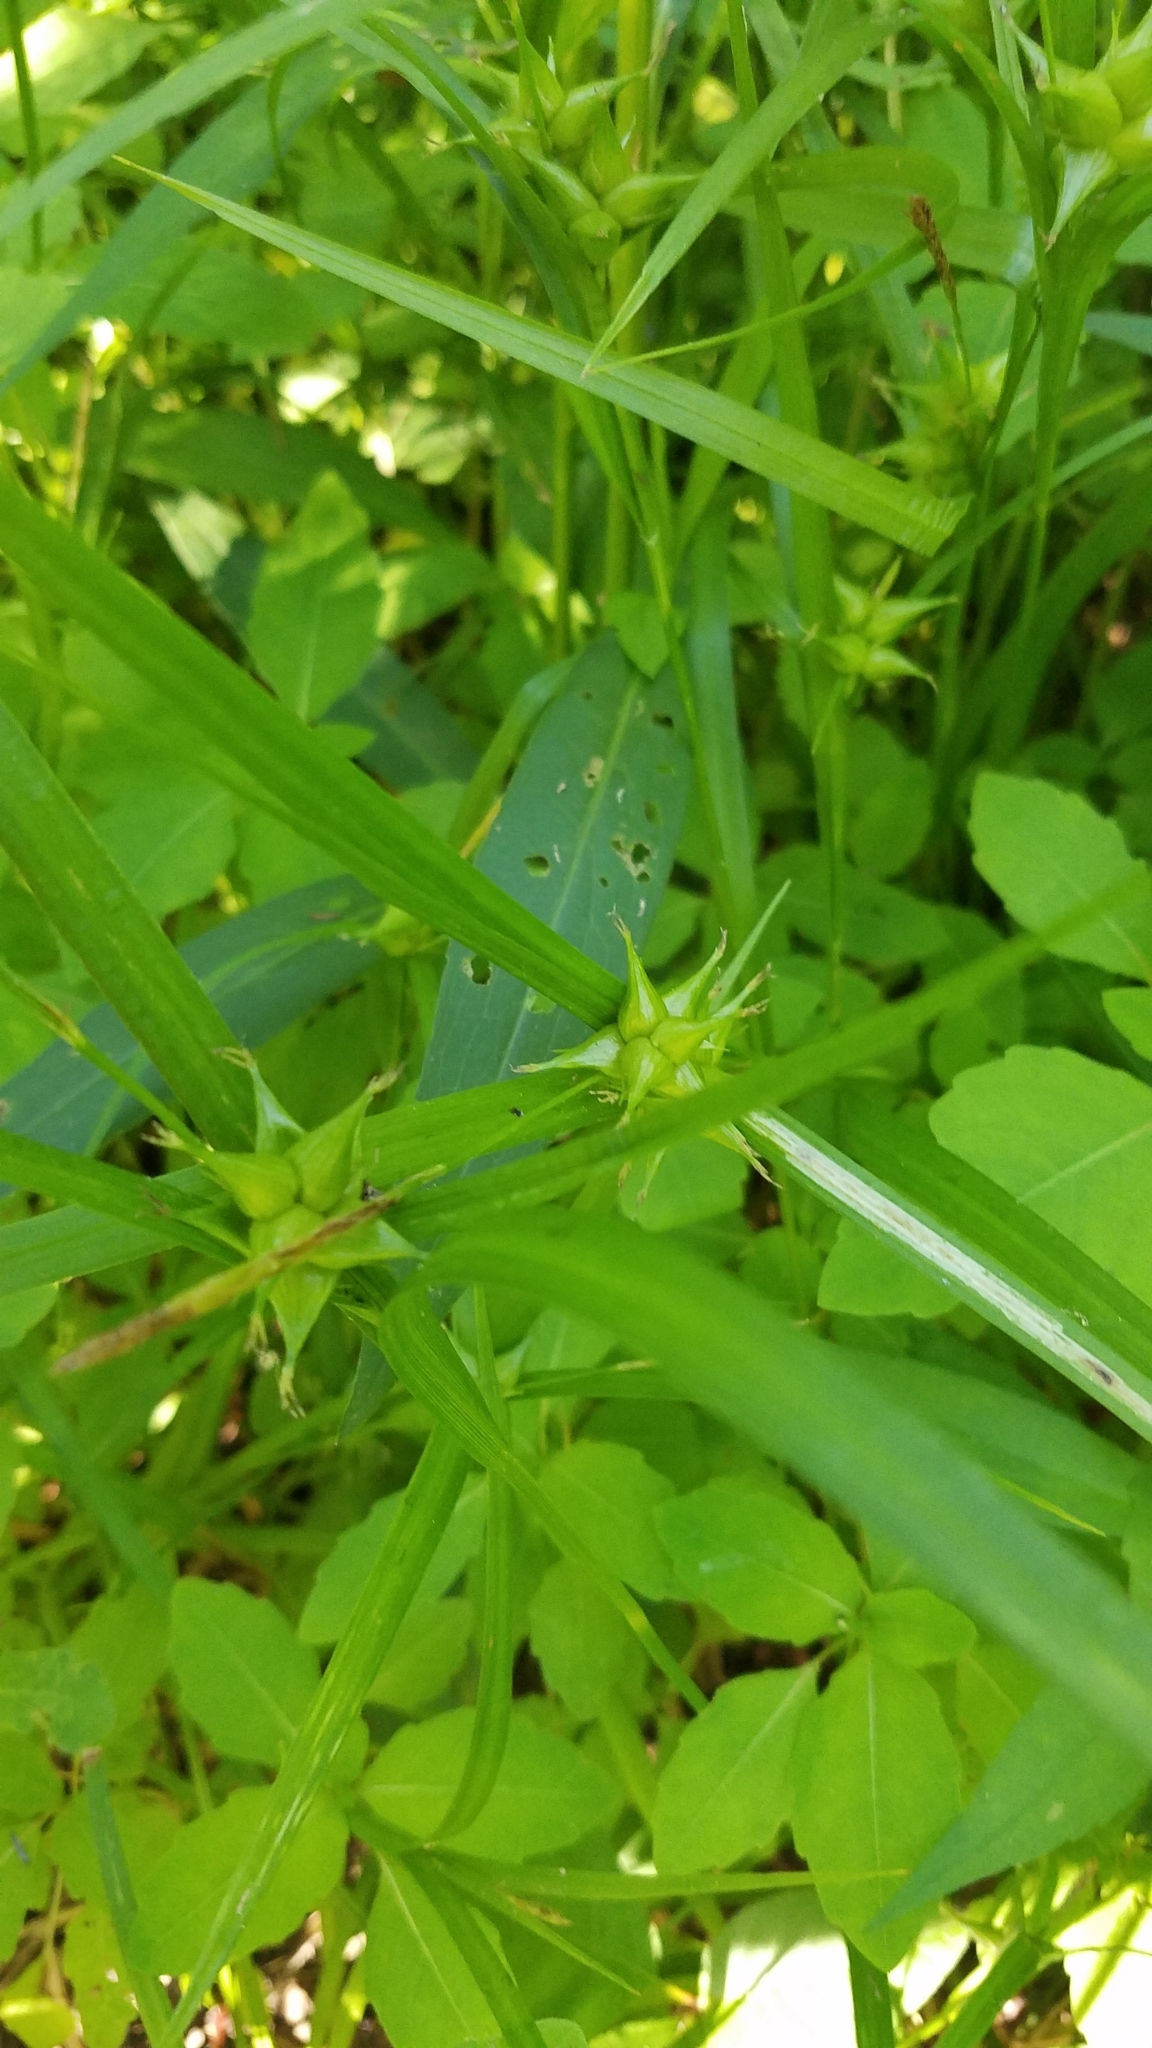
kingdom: Plantae
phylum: Tracheophyta
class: Liliopsida
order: Poales
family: Cyperaceae
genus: Carex
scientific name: Carex intumescens
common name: Greater bladder sedge
